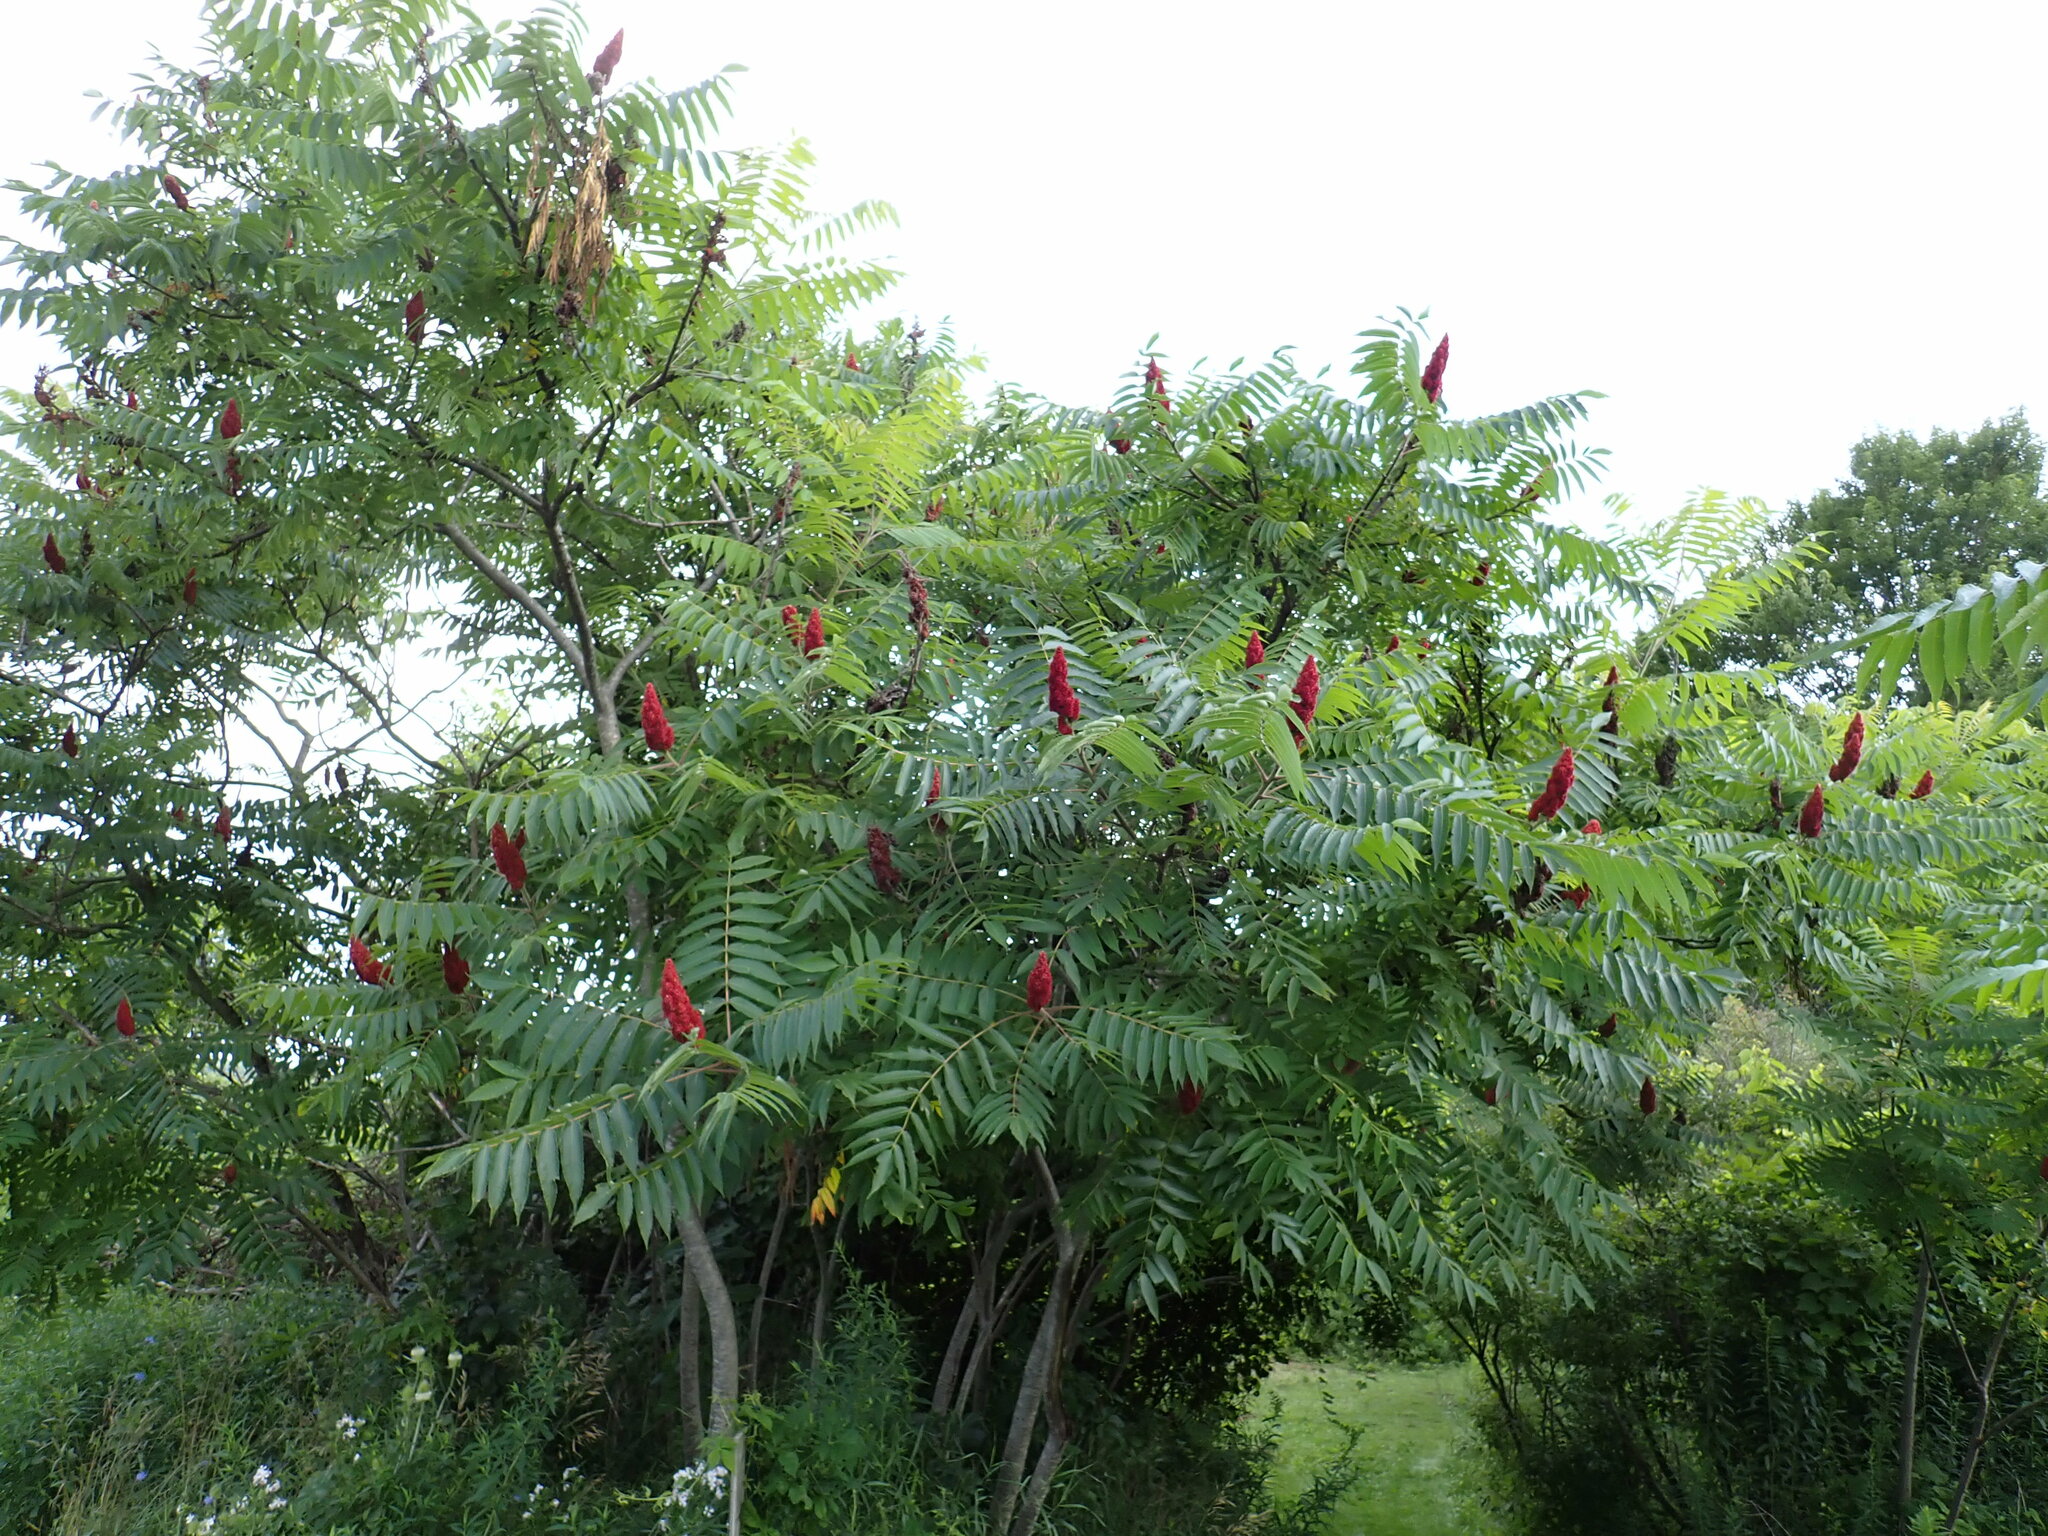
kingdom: Plantae
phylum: Tracheophyta
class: Magnoliopsida
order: Sapindales
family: Anacardiaceae
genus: Rhus
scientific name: Rhus typhina
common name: Staghorn sumac
